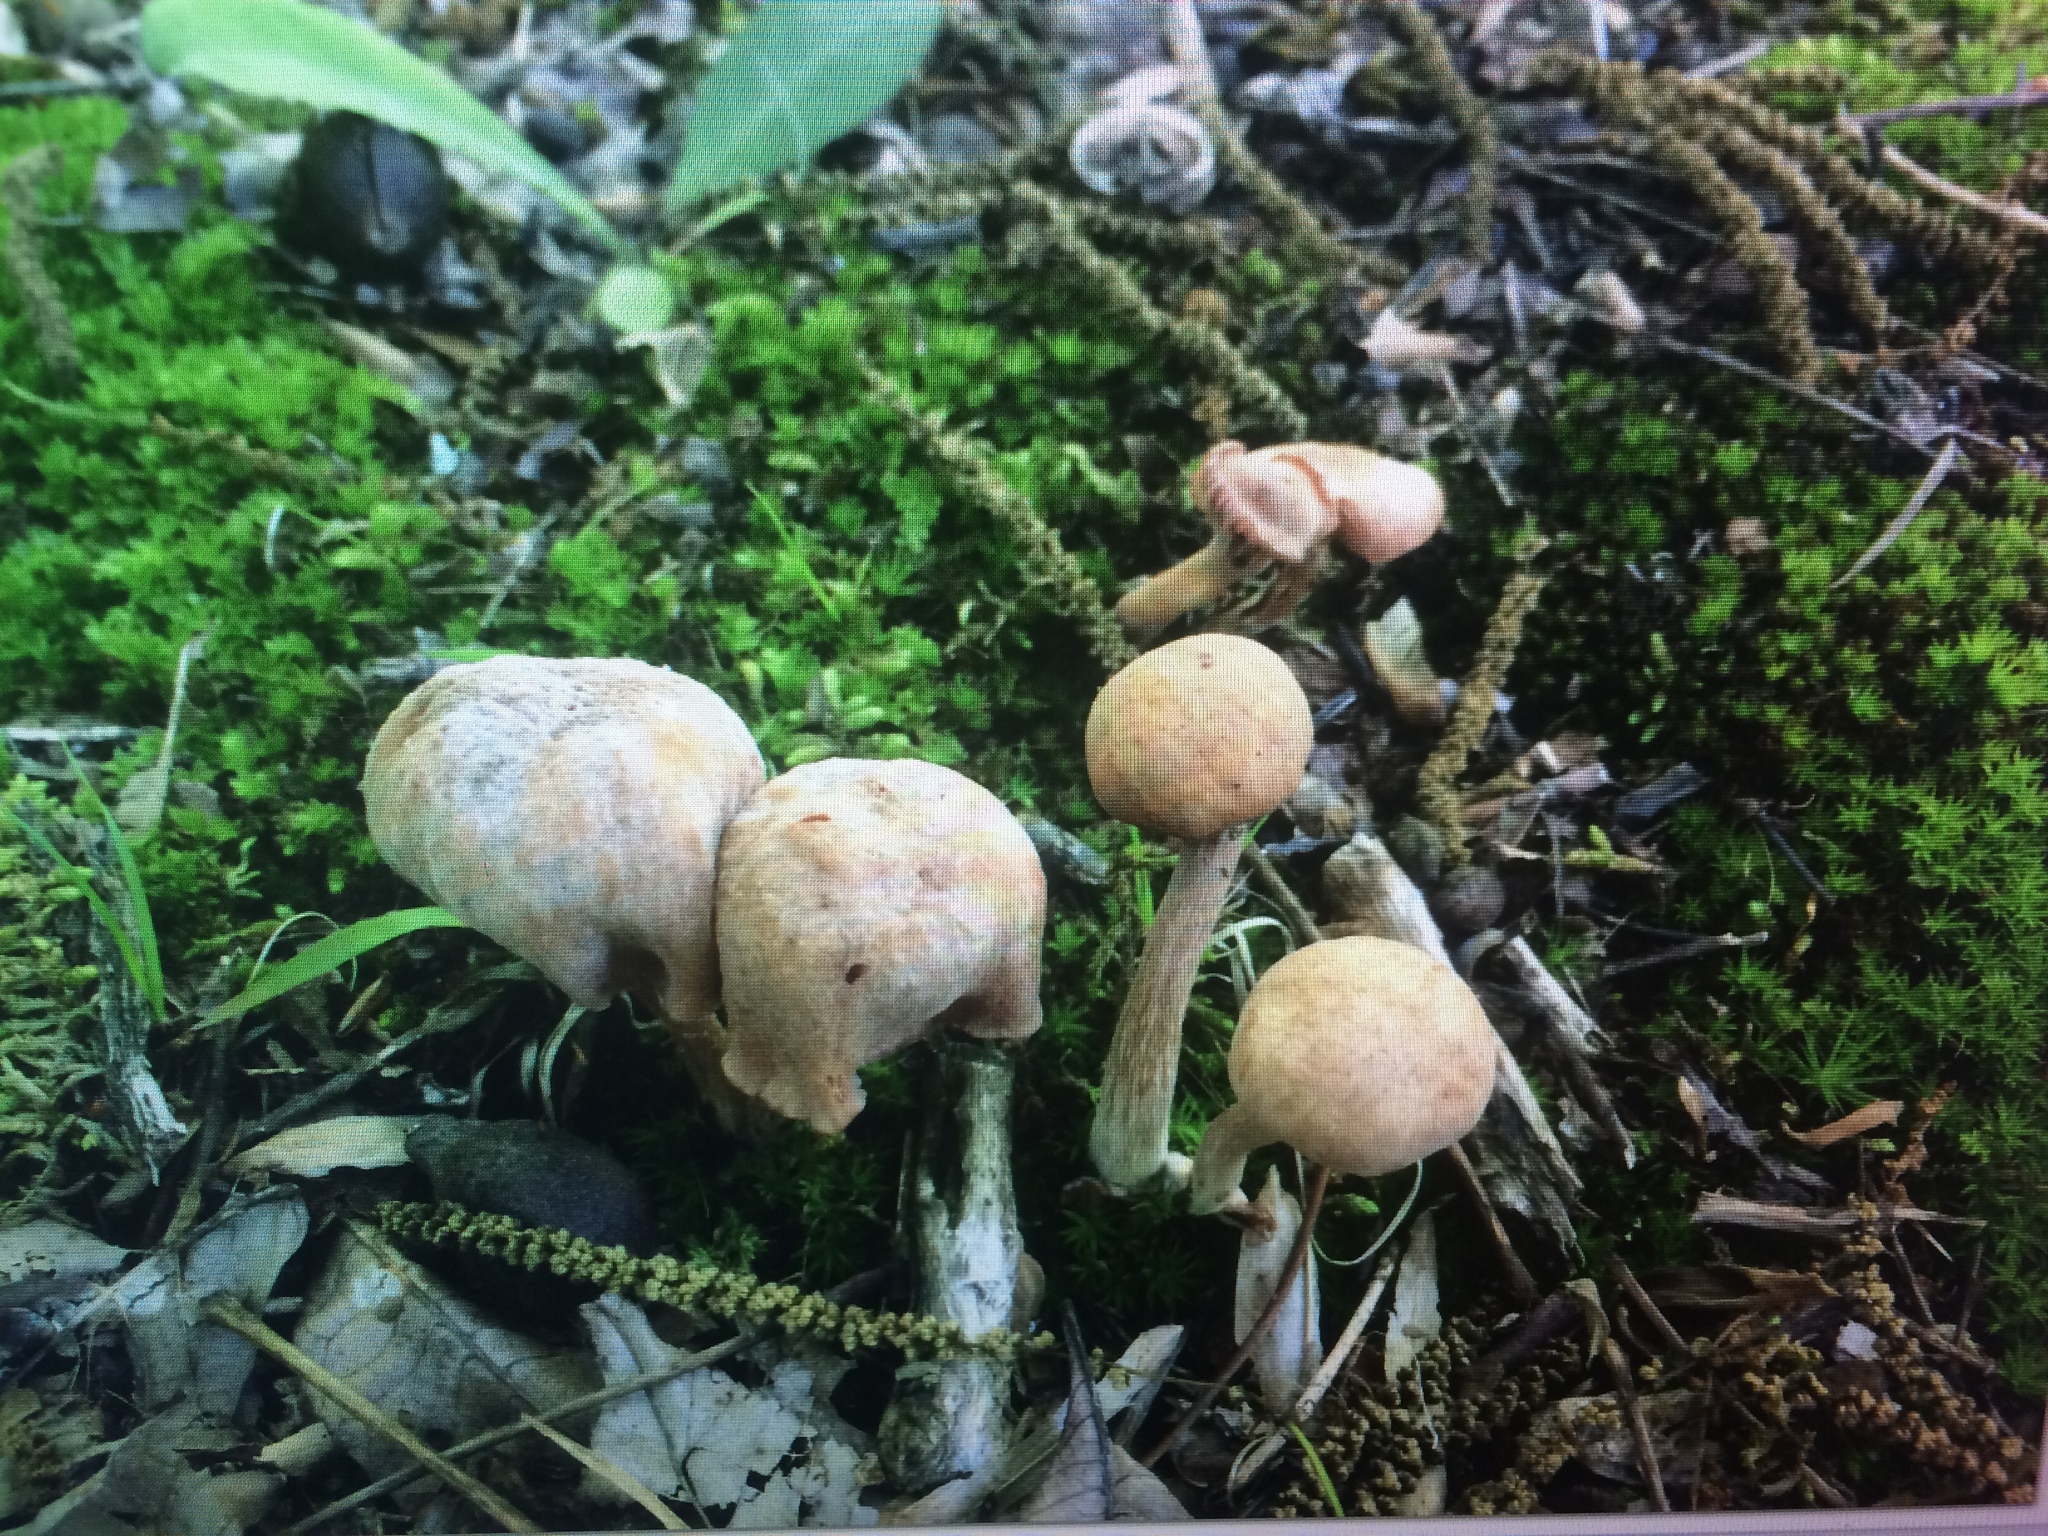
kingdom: Fungi
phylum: Basidiomycota
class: Agaricomycetes
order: Agaricales
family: Hydnangiaceae
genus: Laccaria
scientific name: Laccaria laccata
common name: Deceiver
